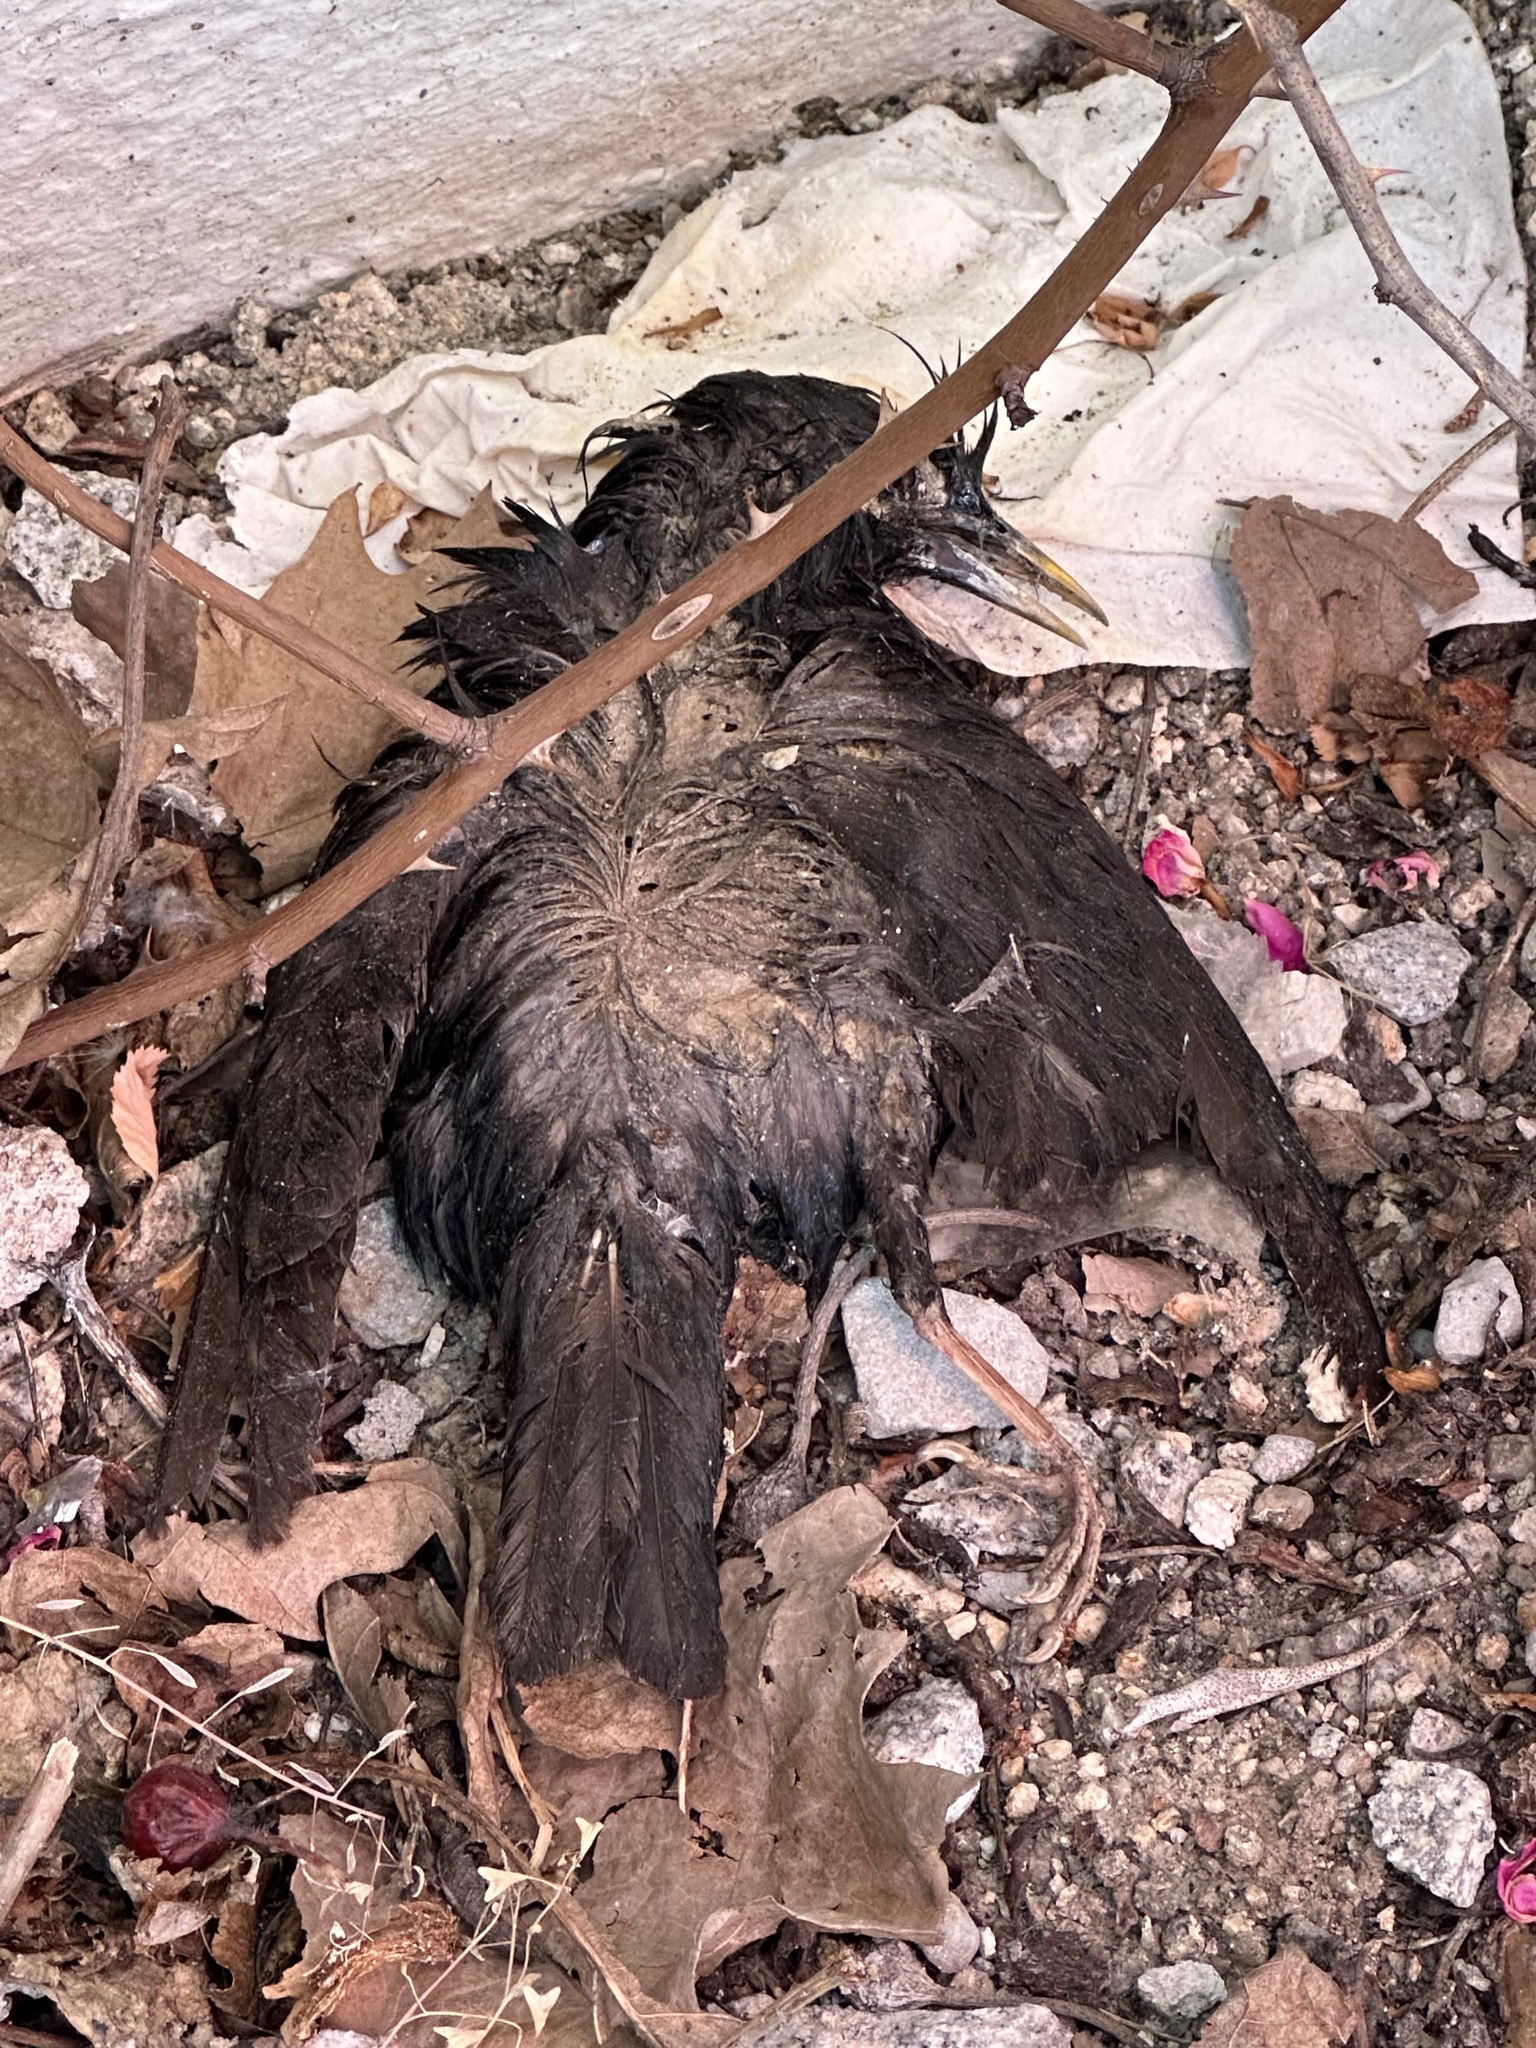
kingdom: Animalia
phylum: Chordata
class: Aves
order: Passeriformes
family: Sturnidae
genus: Sturnus
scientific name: Sturnus unicolor
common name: Spotless starling
